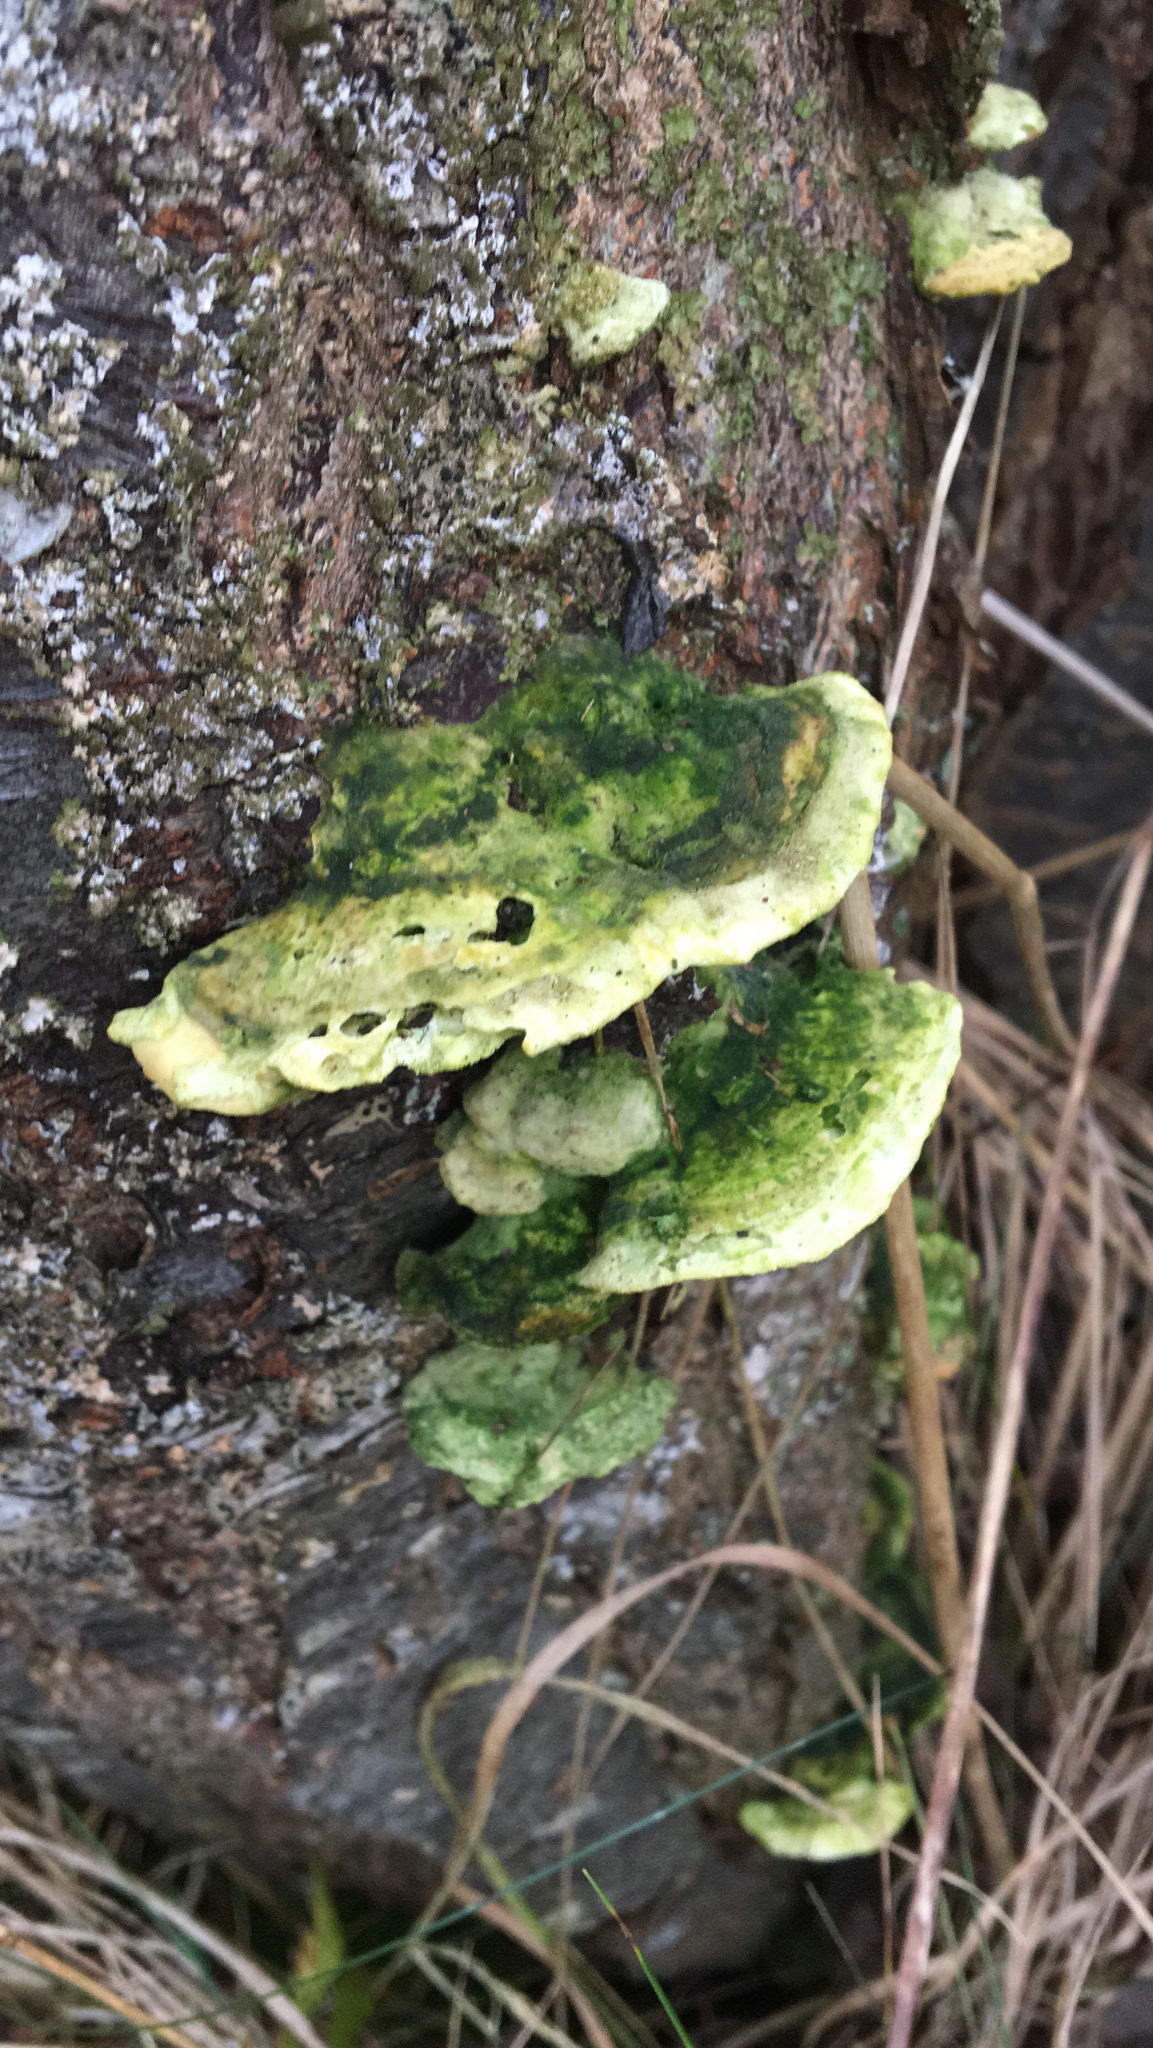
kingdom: Fungi
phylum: Basidiomycota
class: Agaricomycetes
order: Polyporales
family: Polyporaceae
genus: Trametes
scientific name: Trametes gibbosa
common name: Lumpy bracket
